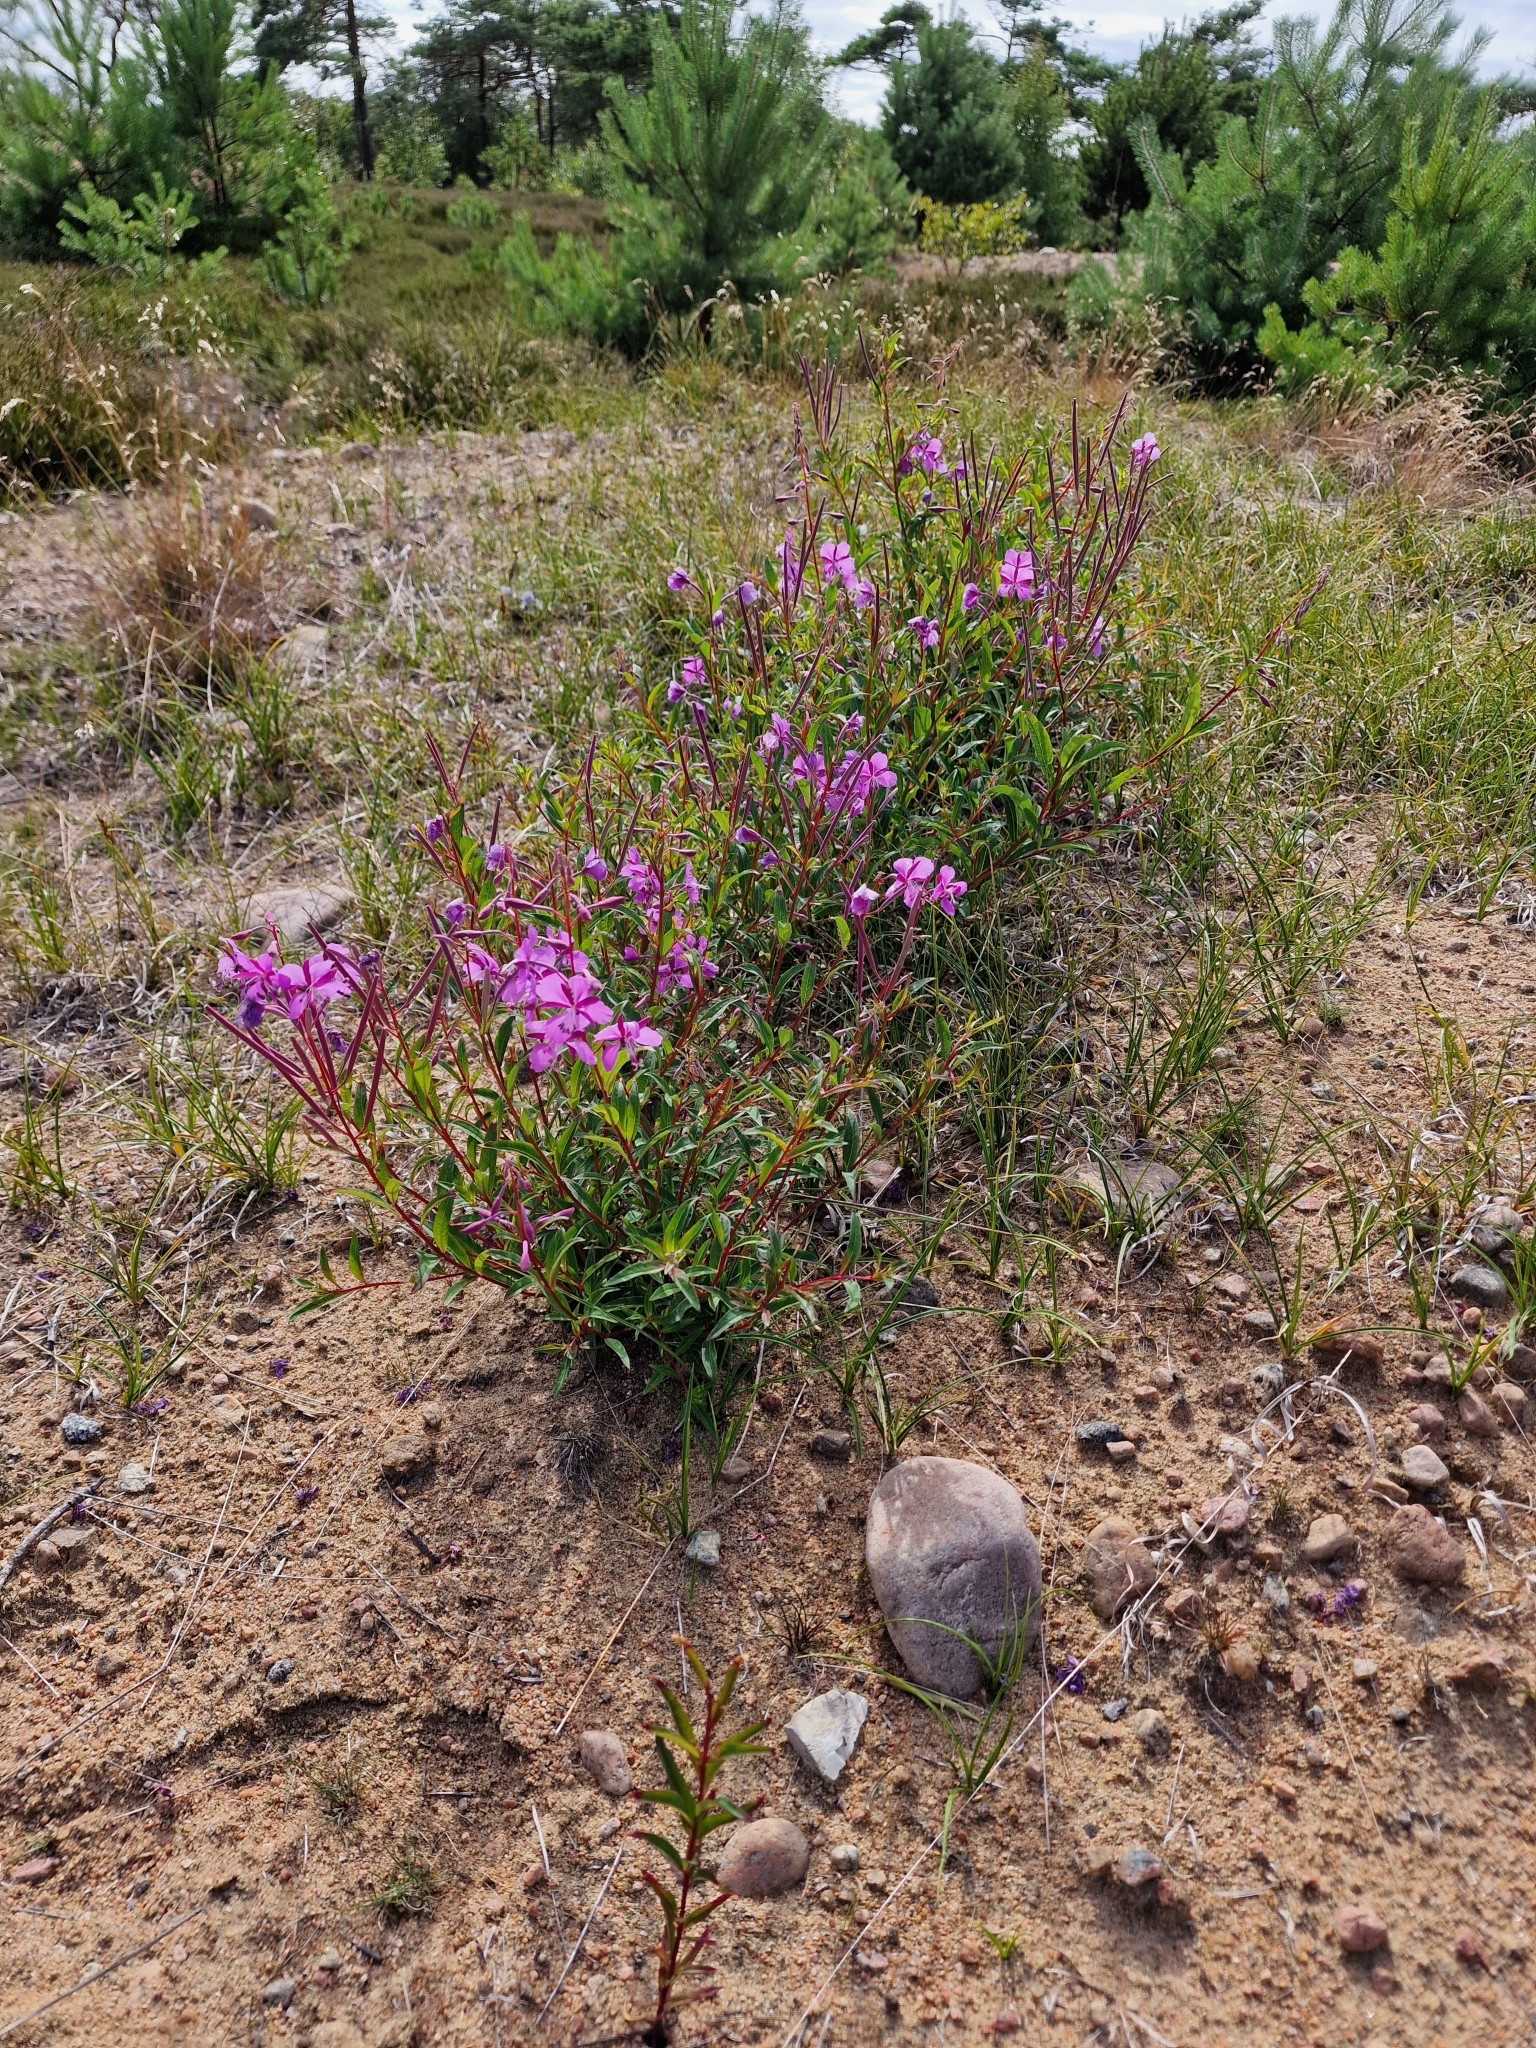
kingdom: Plantae
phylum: Tracheophyta
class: Magnoliopsida
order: Myrtales
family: Onagraceae
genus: Chamaenerion
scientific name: Chamaenerion angustifolium
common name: Fireweed
